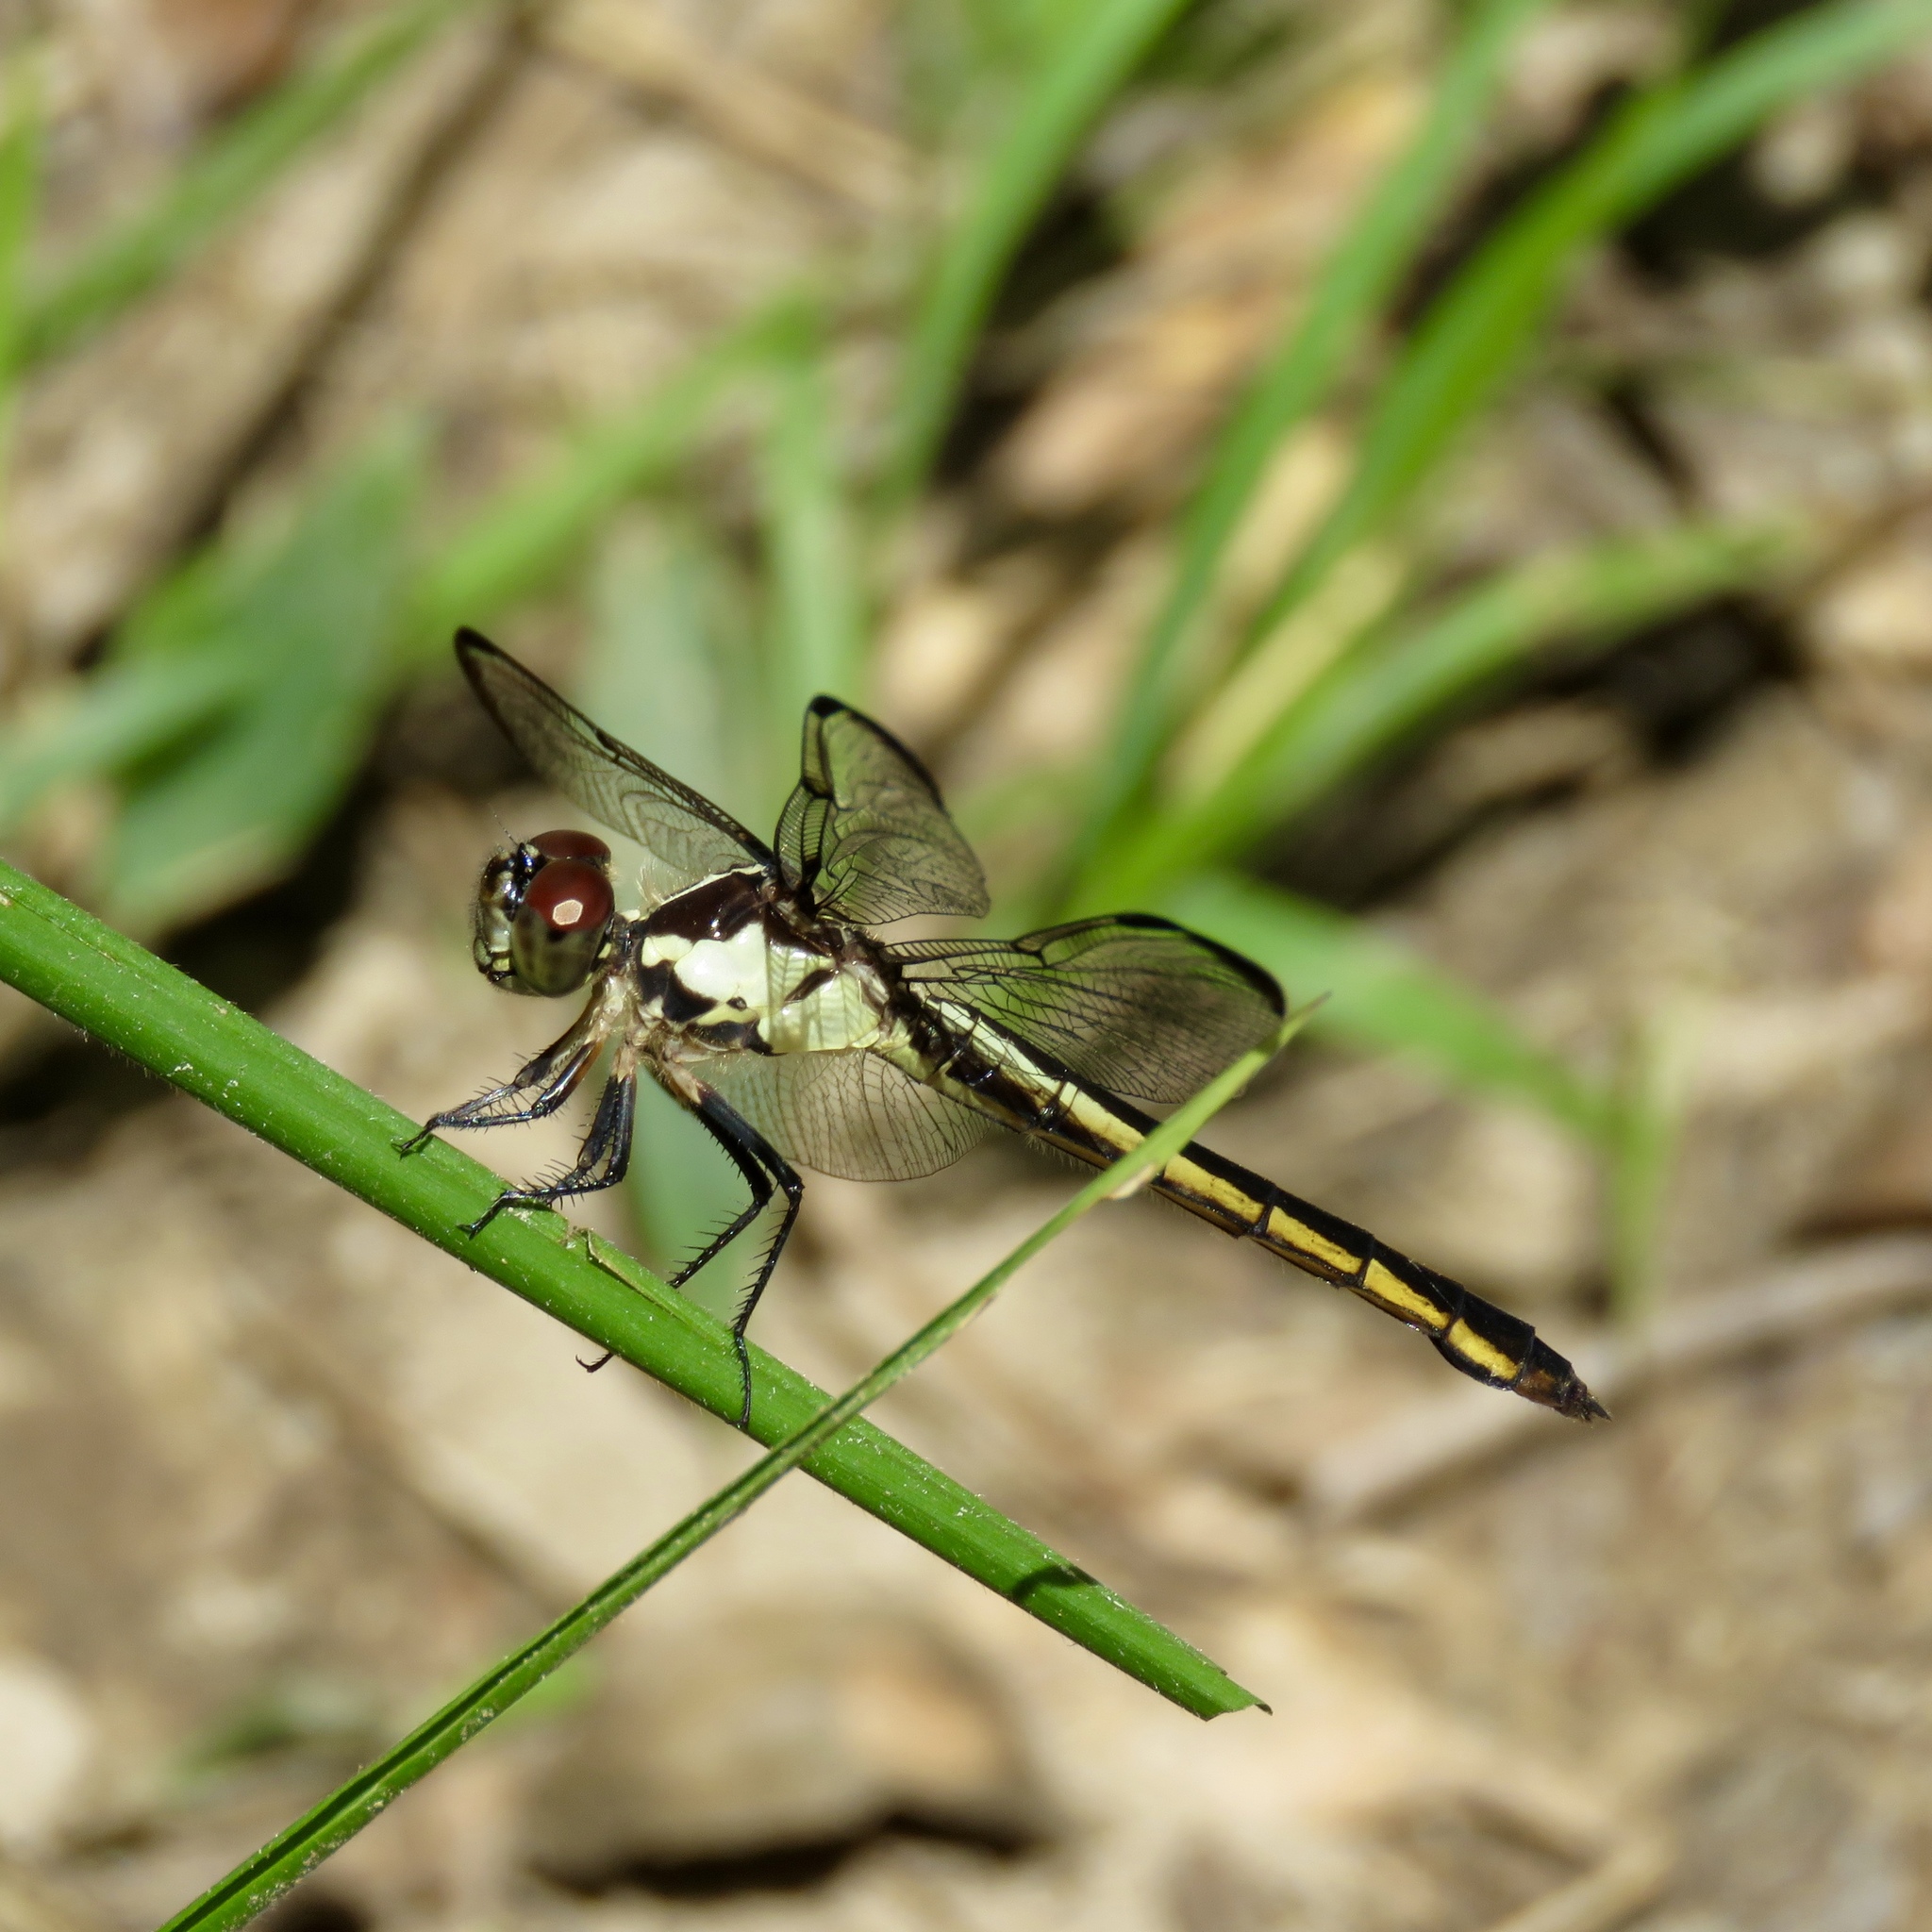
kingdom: Animalia
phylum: Arthropoda
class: Insecta
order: Odonata
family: Libellulidae
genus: Libellula
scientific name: Libellula incesta
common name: Slaty skimmer
